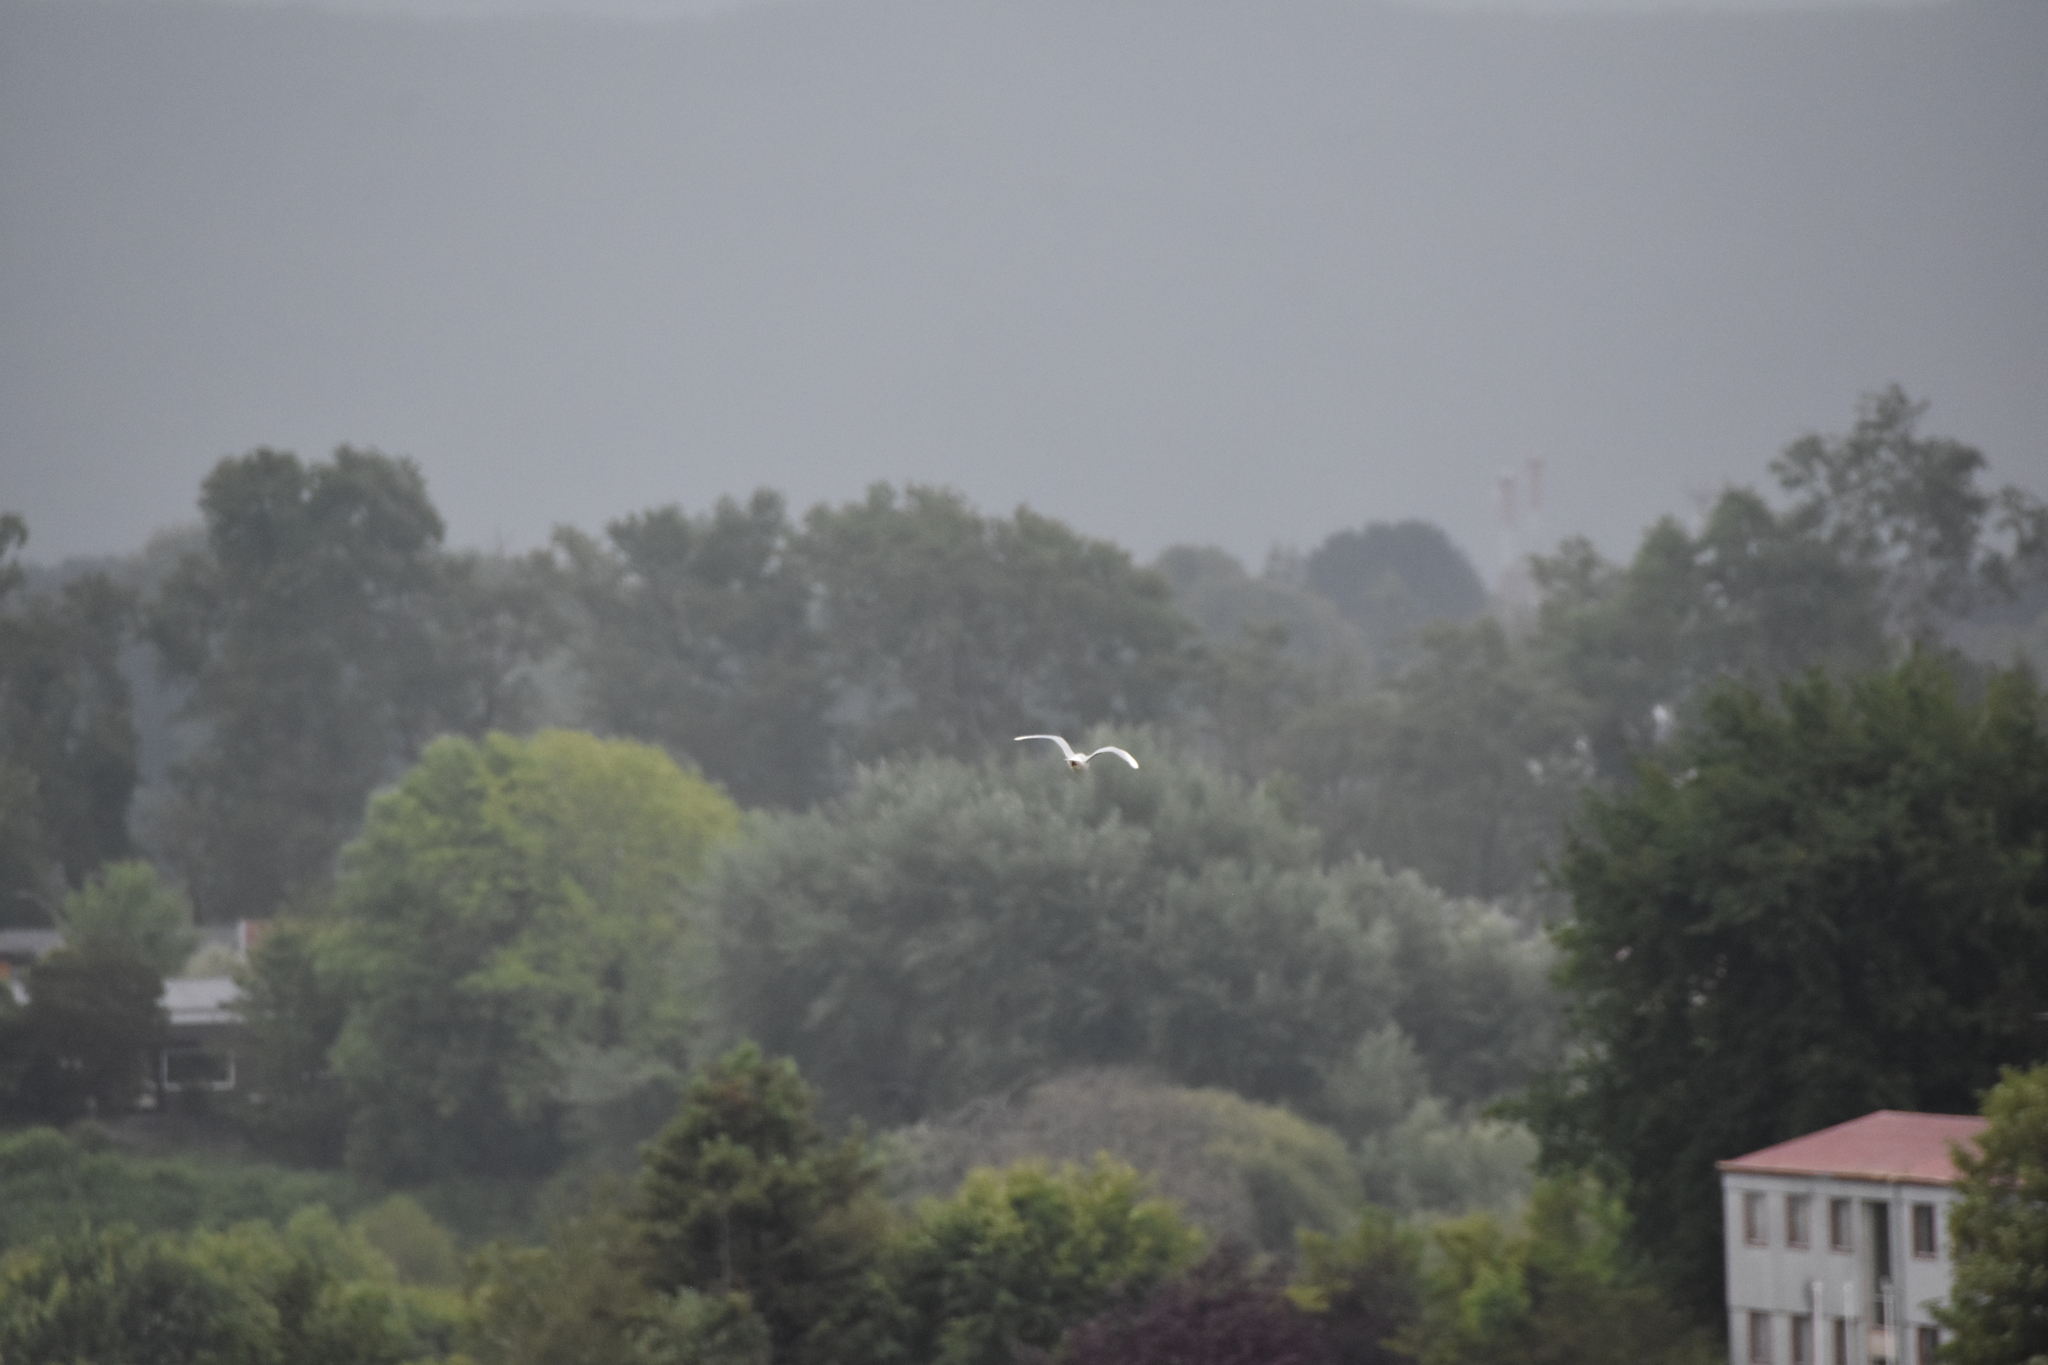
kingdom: Animalia
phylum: Chordata
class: Aves
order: Charadriiformes
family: Laridae
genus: Chroicocephalus
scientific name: Chroicocephalus maculipennis
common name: Brown-hooded gull
